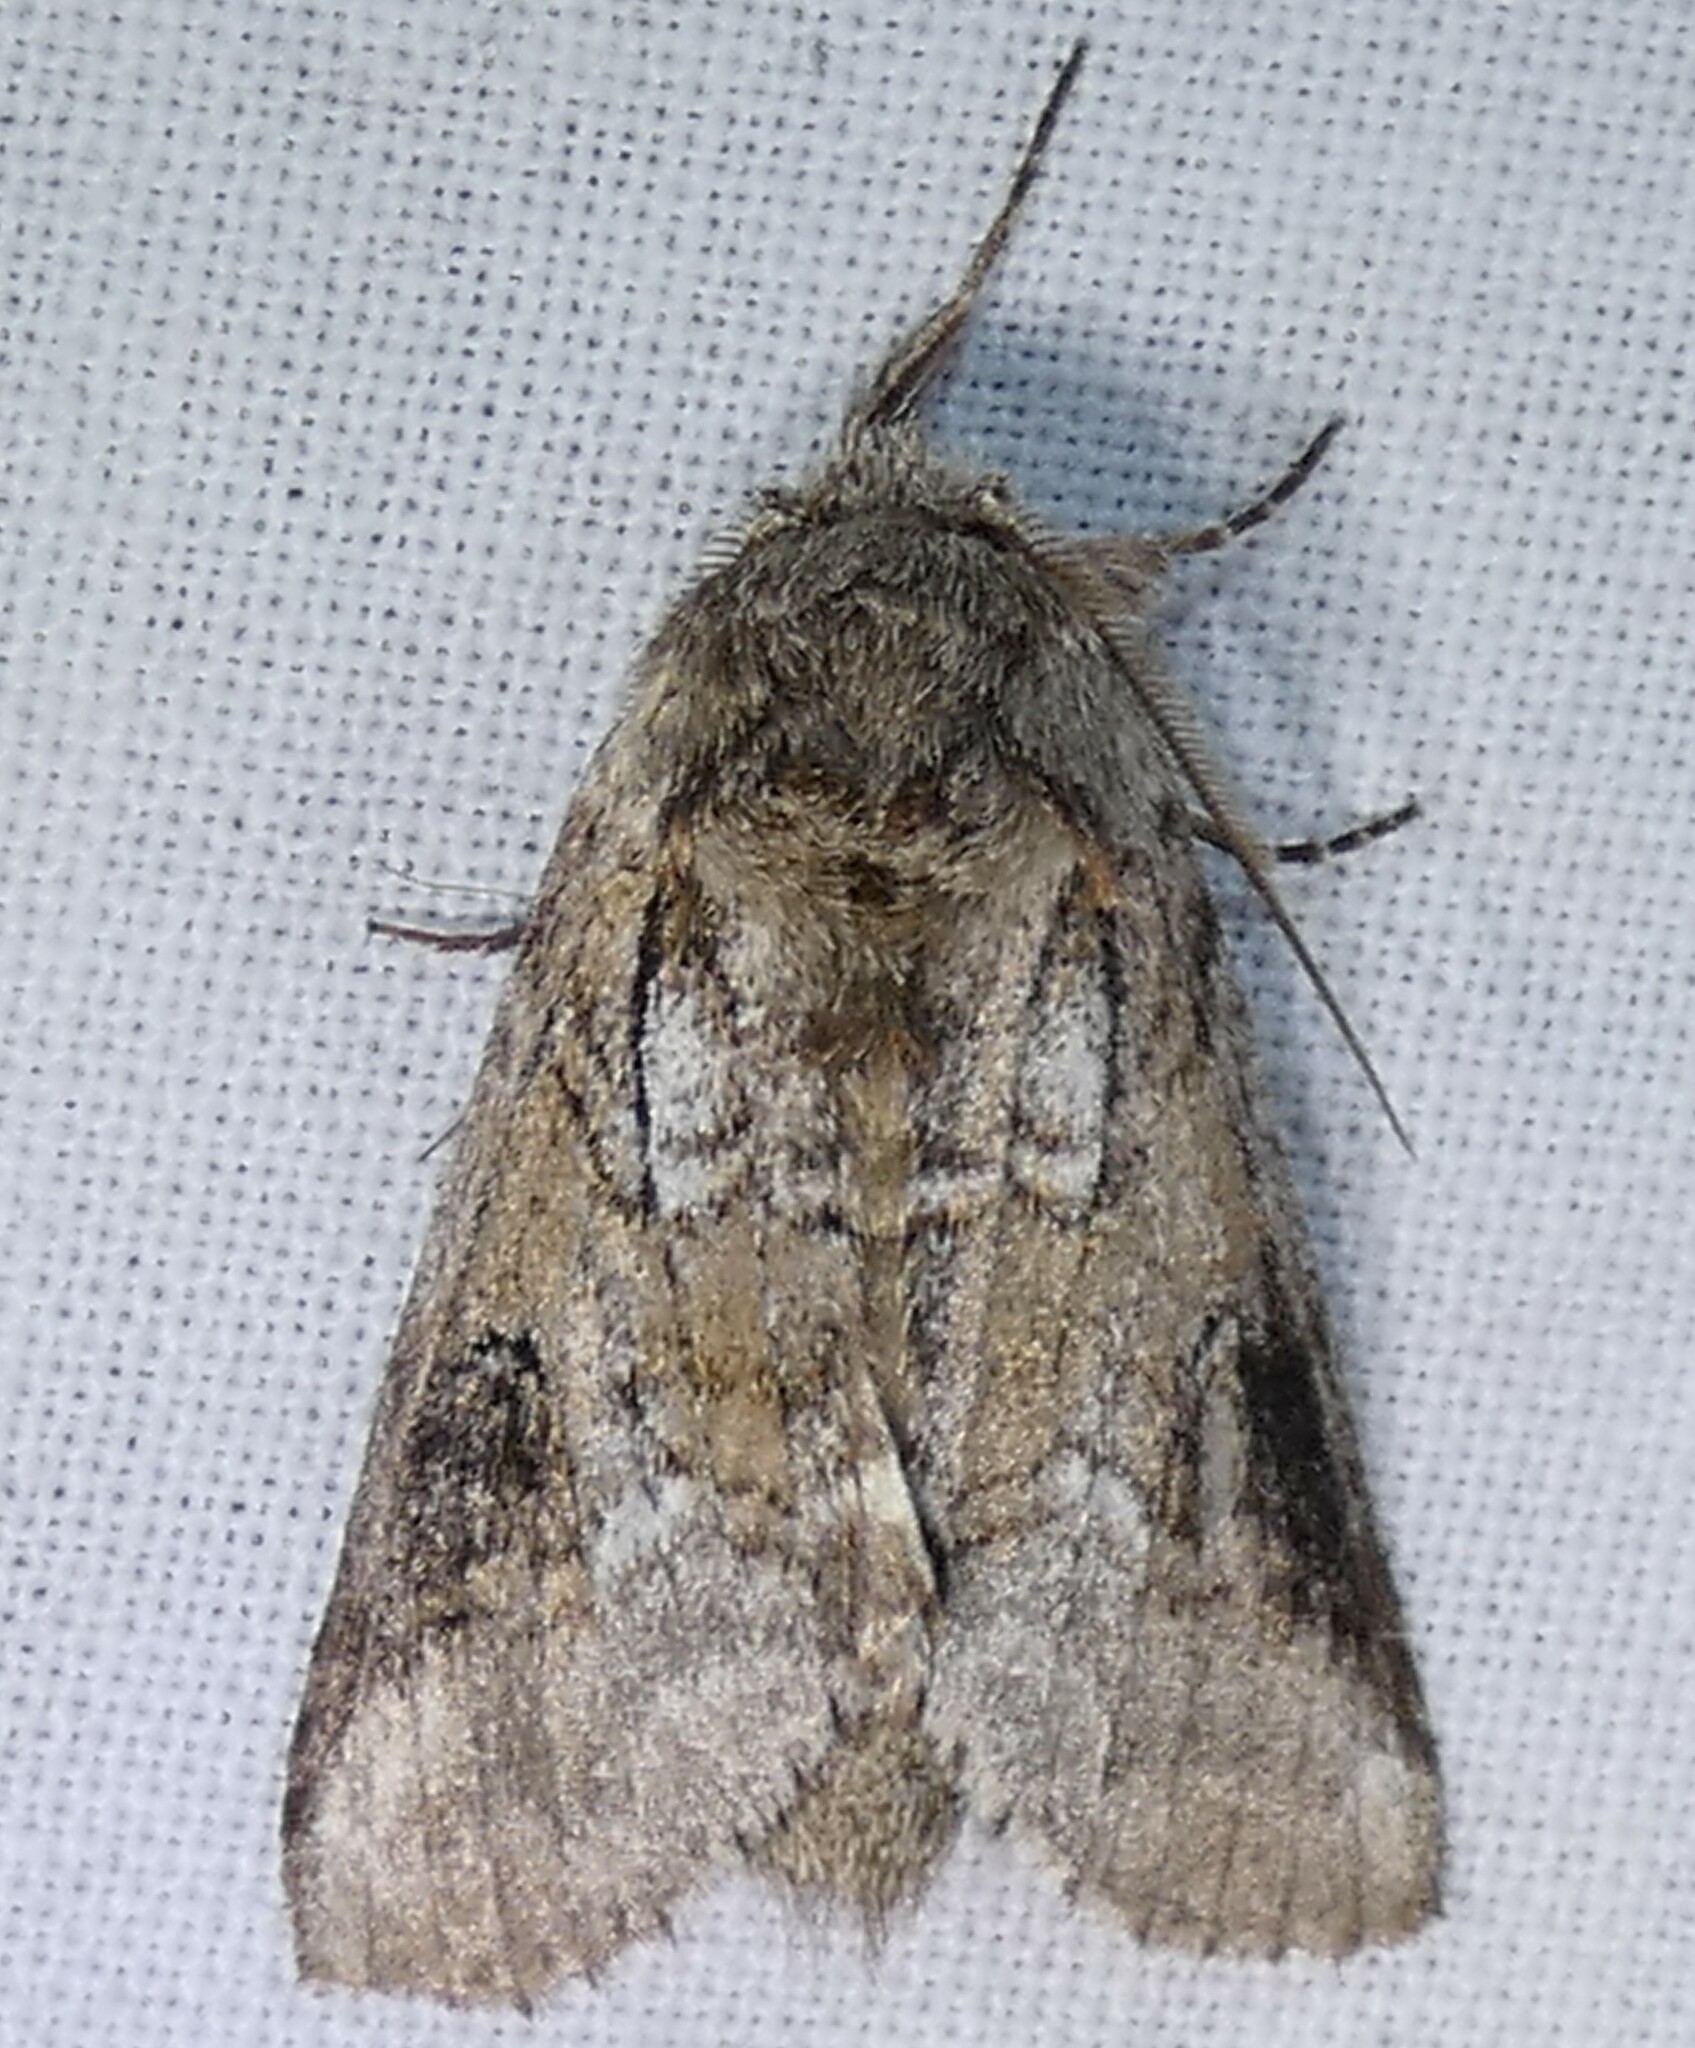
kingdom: Animalia
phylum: Arthropoda
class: Insecta
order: Lepidoptera
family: Notodontidae
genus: Lochmaeus
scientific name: Lochmaeus bilineata
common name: Double-lined prominent
